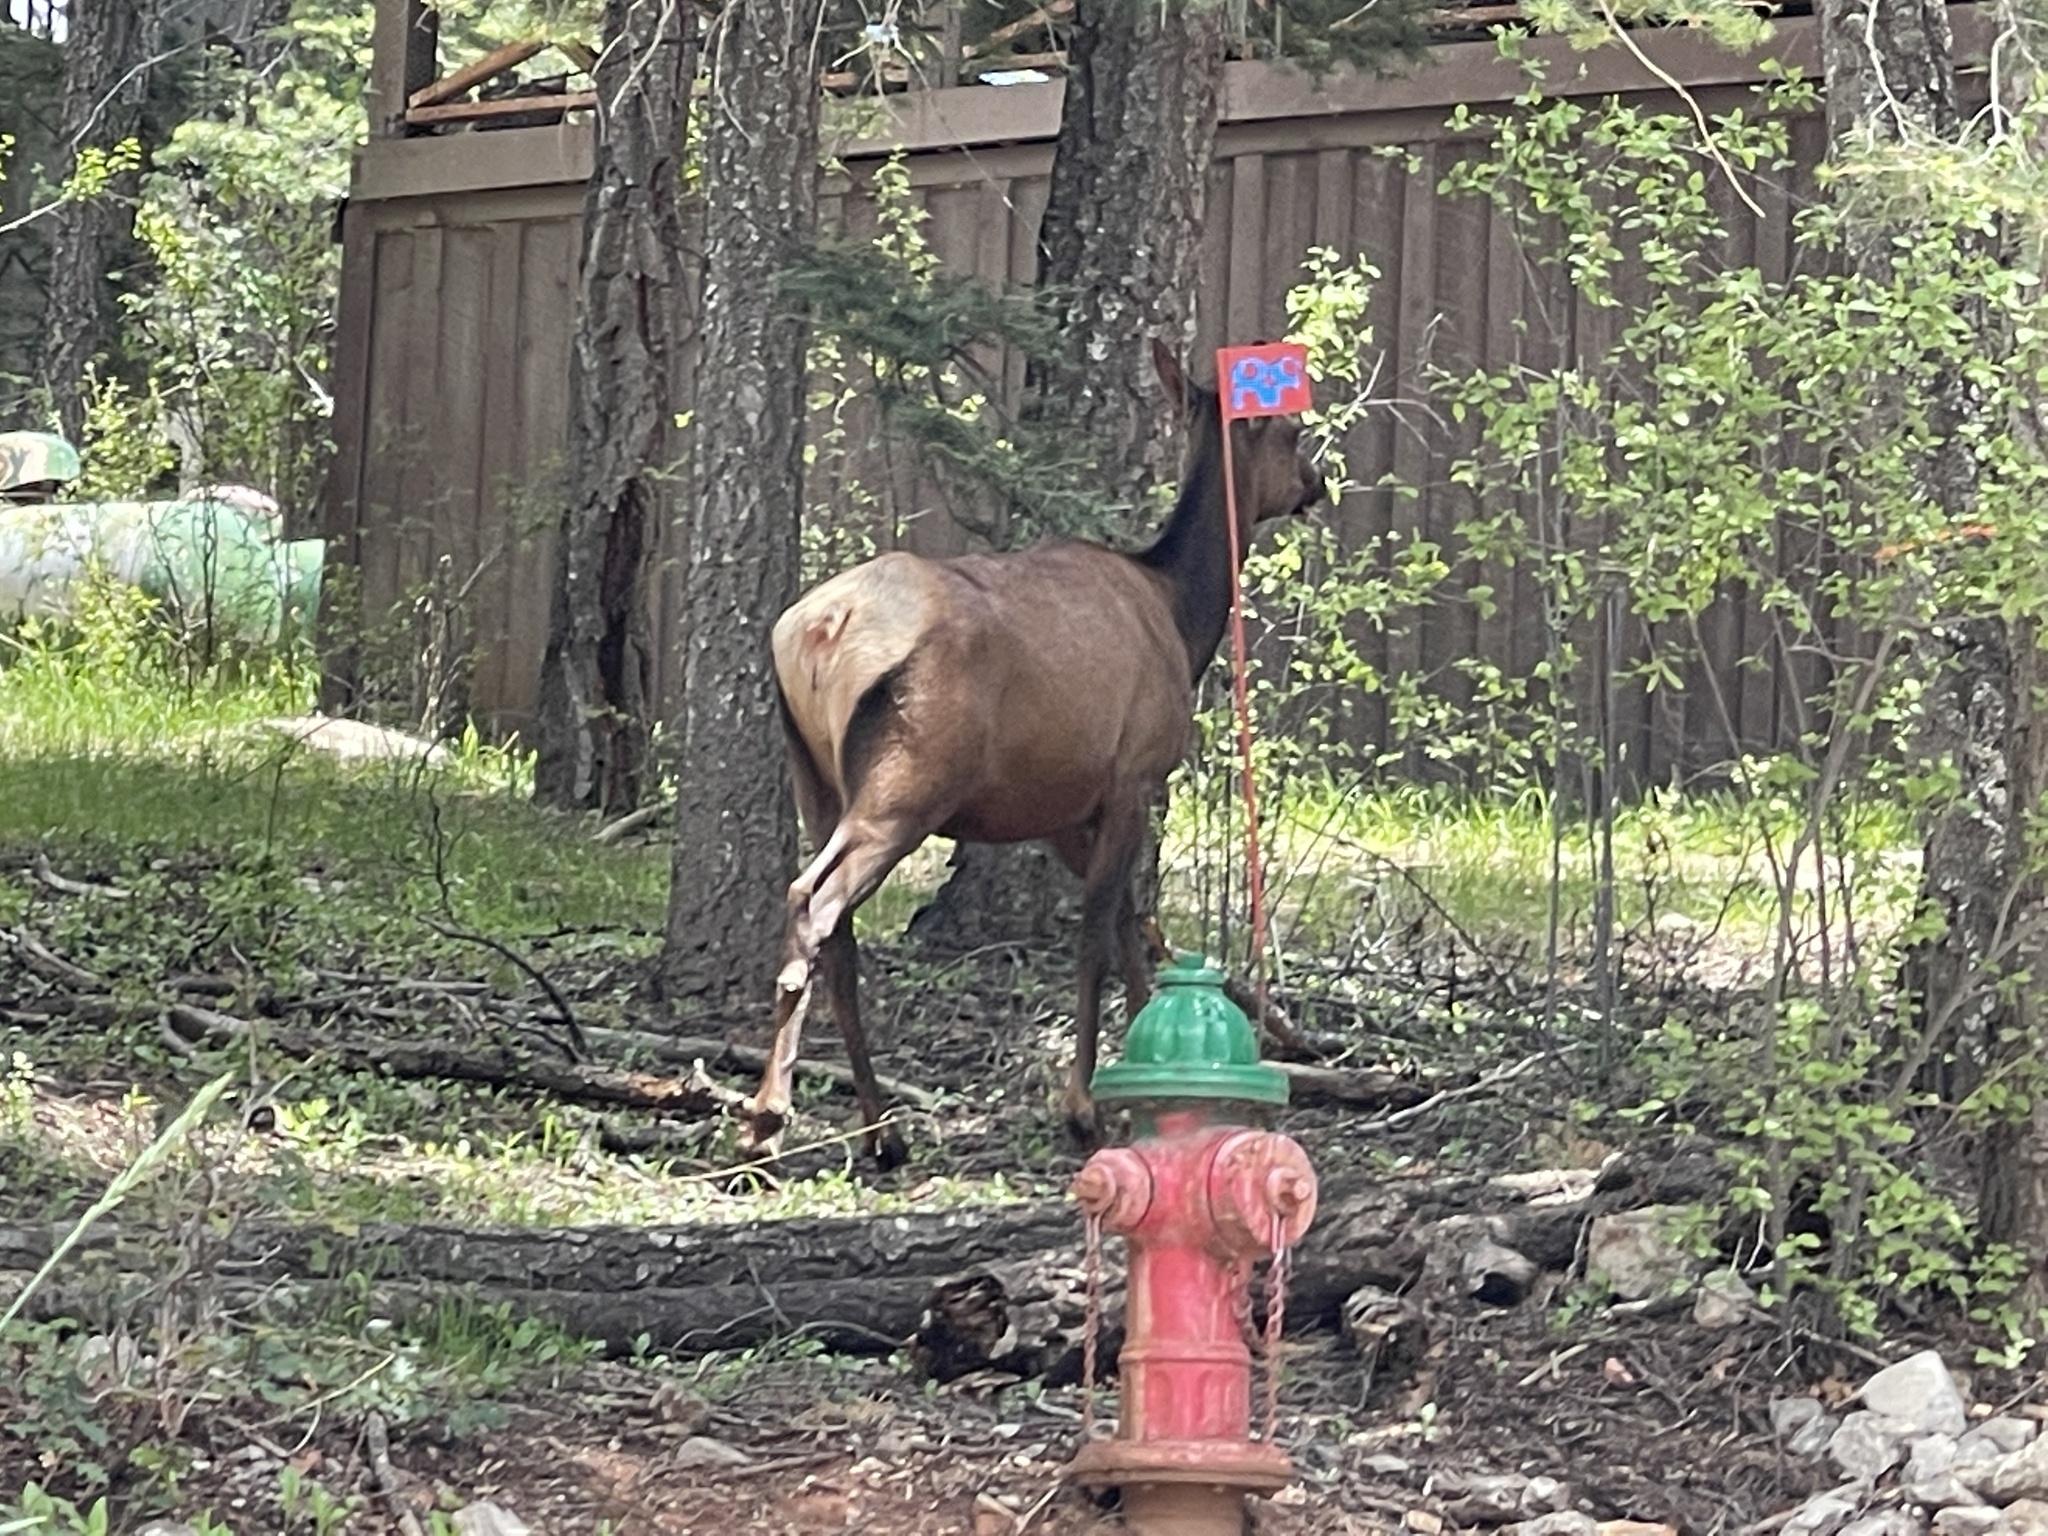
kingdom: Animalia
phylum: Chordata
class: Mammalia
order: Artiodactyla
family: Cervidae
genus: Cervus
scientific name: Cervus elaphus
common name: Red deer
